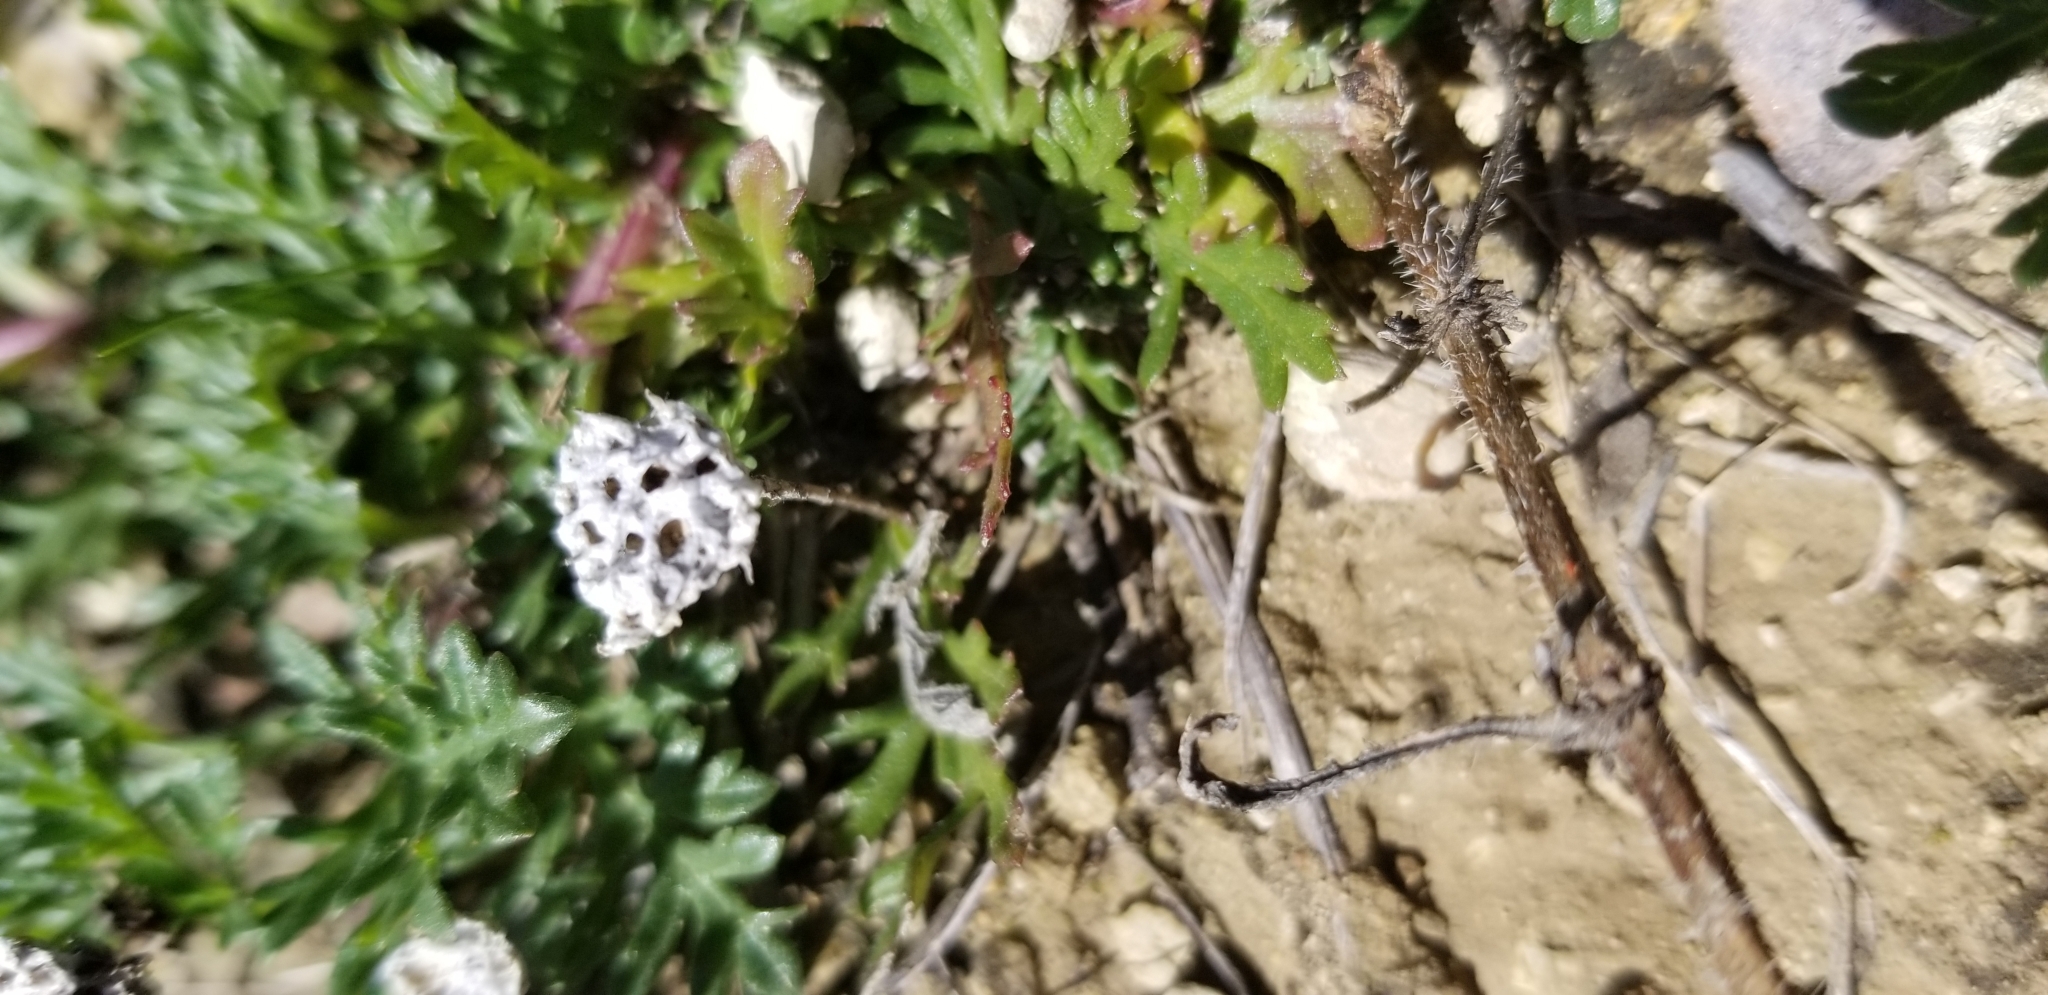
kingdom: Plantae
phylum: Tracheophyta
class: Magnoliopsida
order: Asterales
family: Asteraceae
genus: Diaperia
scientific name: Diaperia prolifera
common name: Big-head rabbit-tobacco
